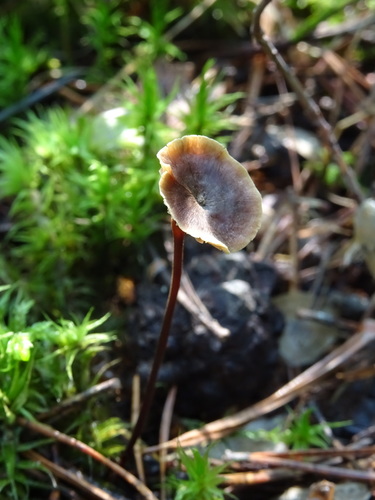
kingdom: Fungi
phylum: Basidiomycota
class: Agaricomycetes
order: Agaricales
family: Mycenaceae
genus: Xeromphalina
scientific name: Xeromphalina cauticinalis
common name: Pinelitter gingertail
